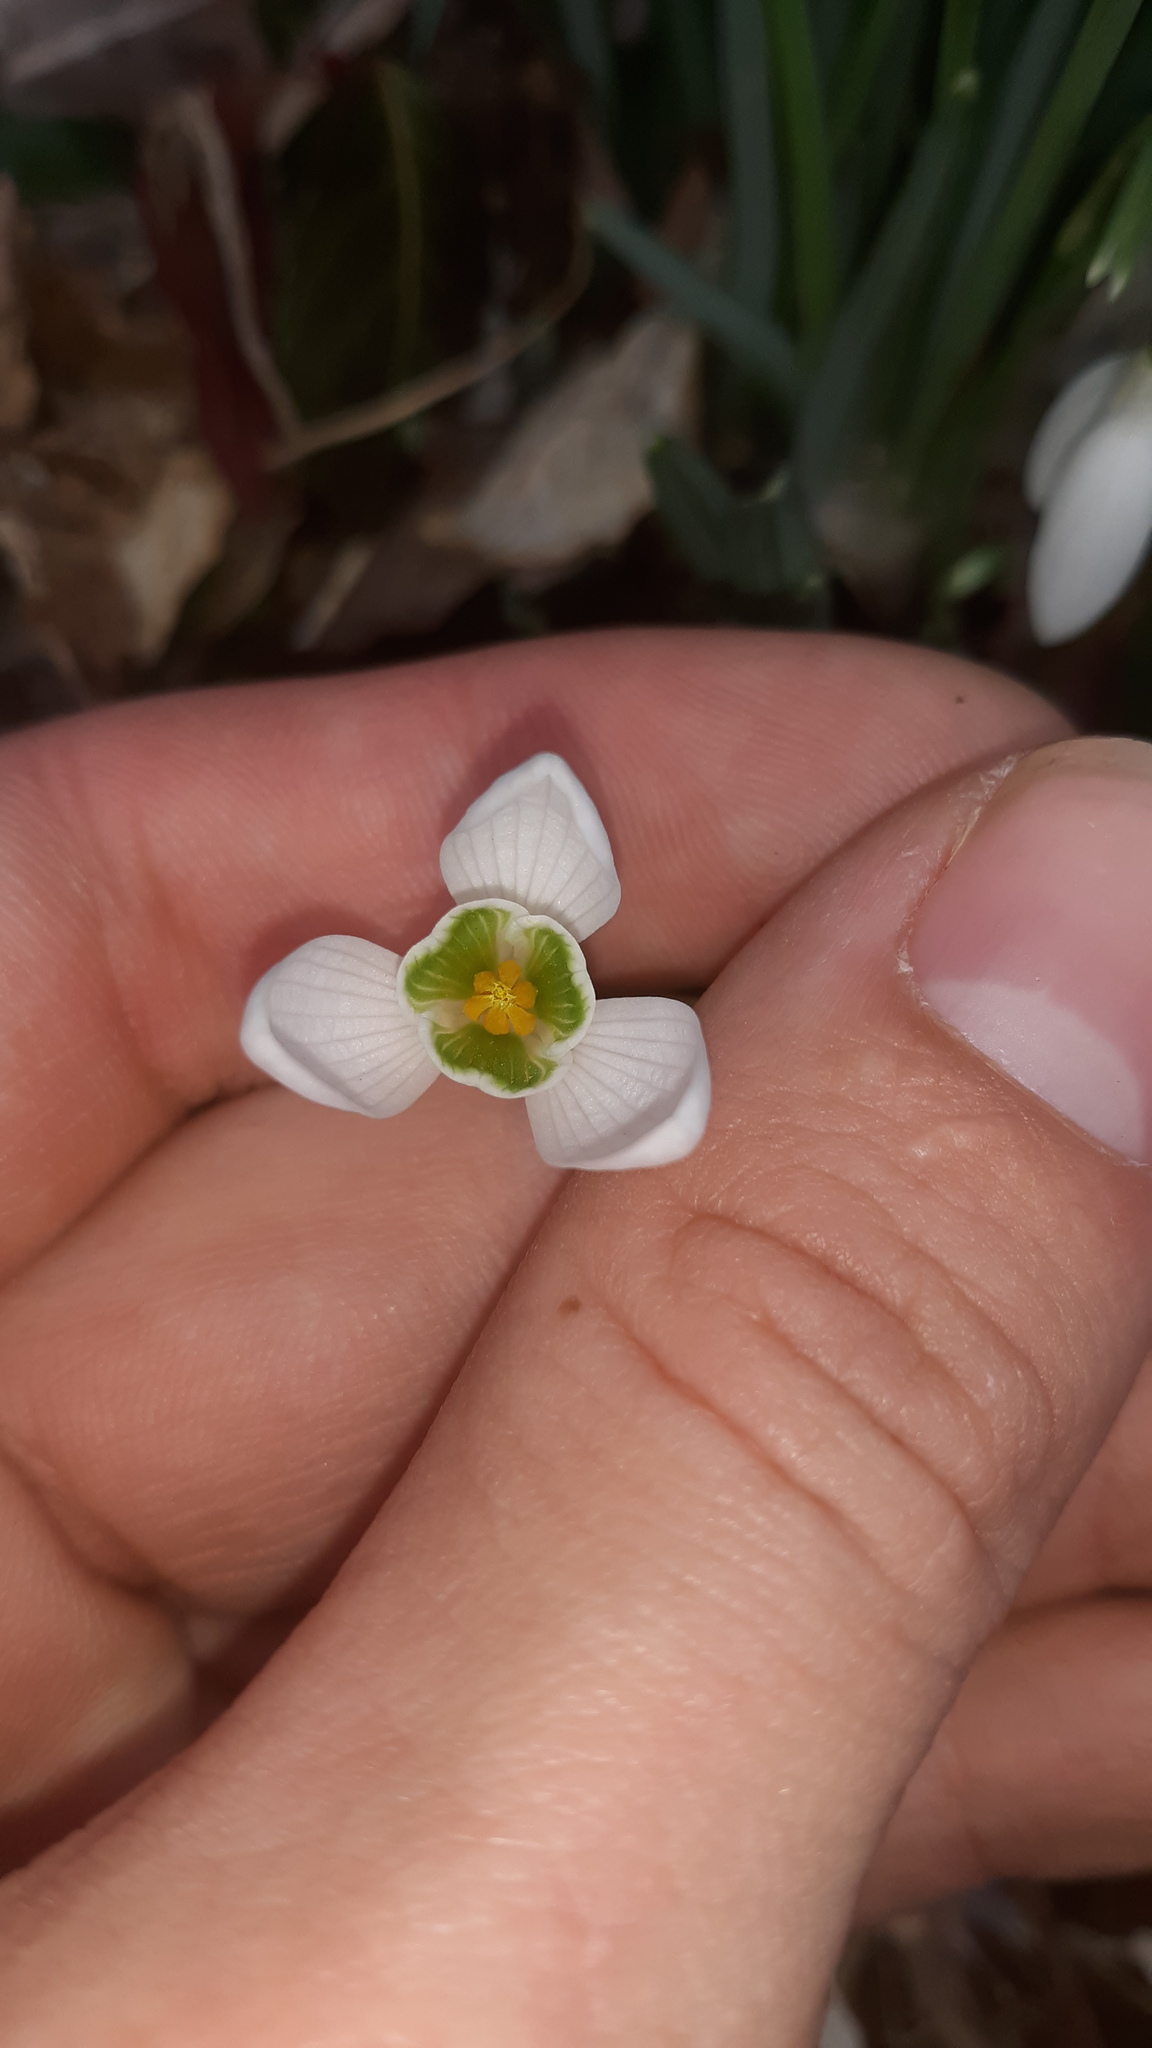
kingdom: Plantae
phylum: Tracheophyta
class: Liliopsida
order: Asparagales
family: Amaryllidaceae
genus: Galanthus
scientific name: Galanthus nivalis
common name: Snowdrop
